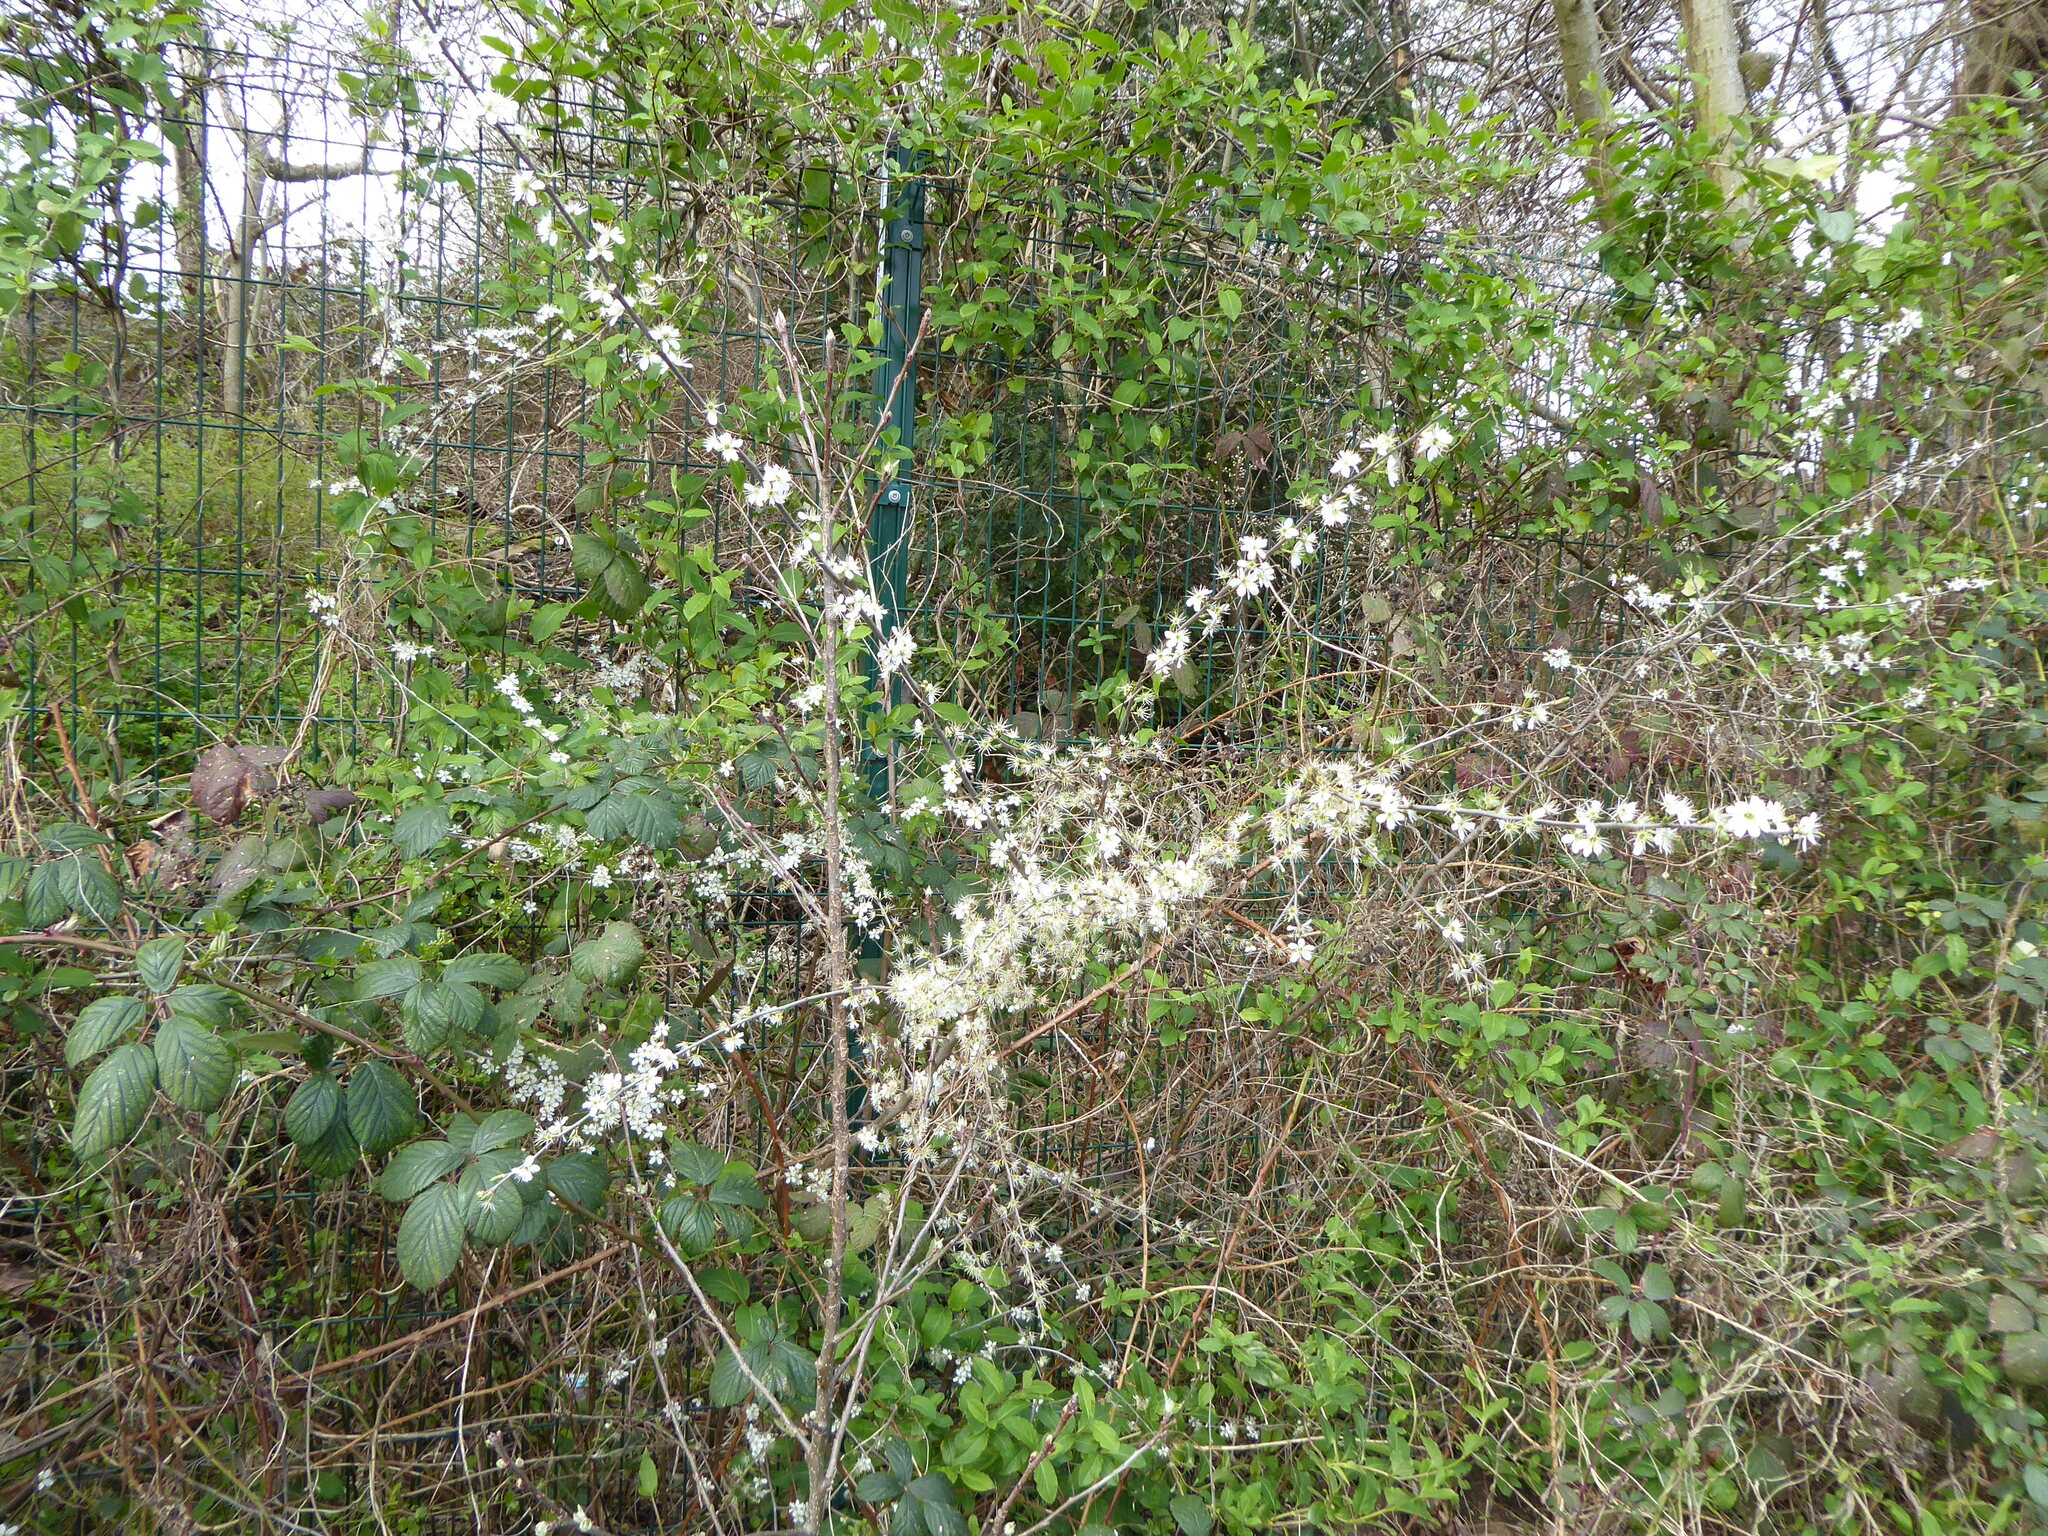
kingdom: Plantae
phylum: Tracheophyta
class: Magnoliopsida
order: Rosales
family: Rosaceae
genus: Prunus
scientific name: Prunus spinosa
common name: Blackthorn
